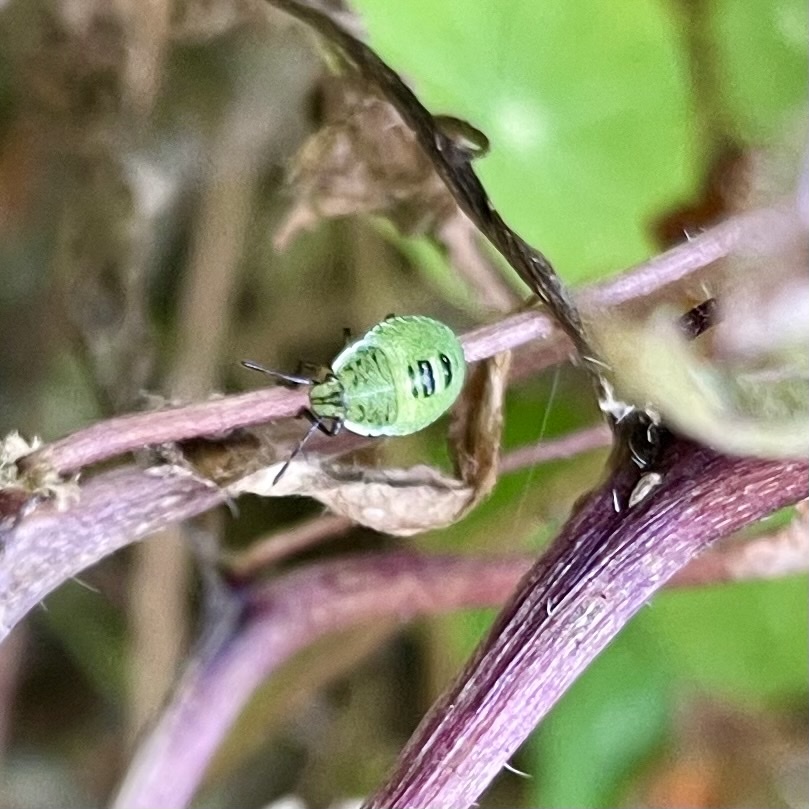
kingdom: Animalia
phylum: Arthropoda
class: Insecta
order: Hemiptera
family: Pentatomidae
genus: Palomena
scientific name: Palomena prasina
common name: Green shieldbug
